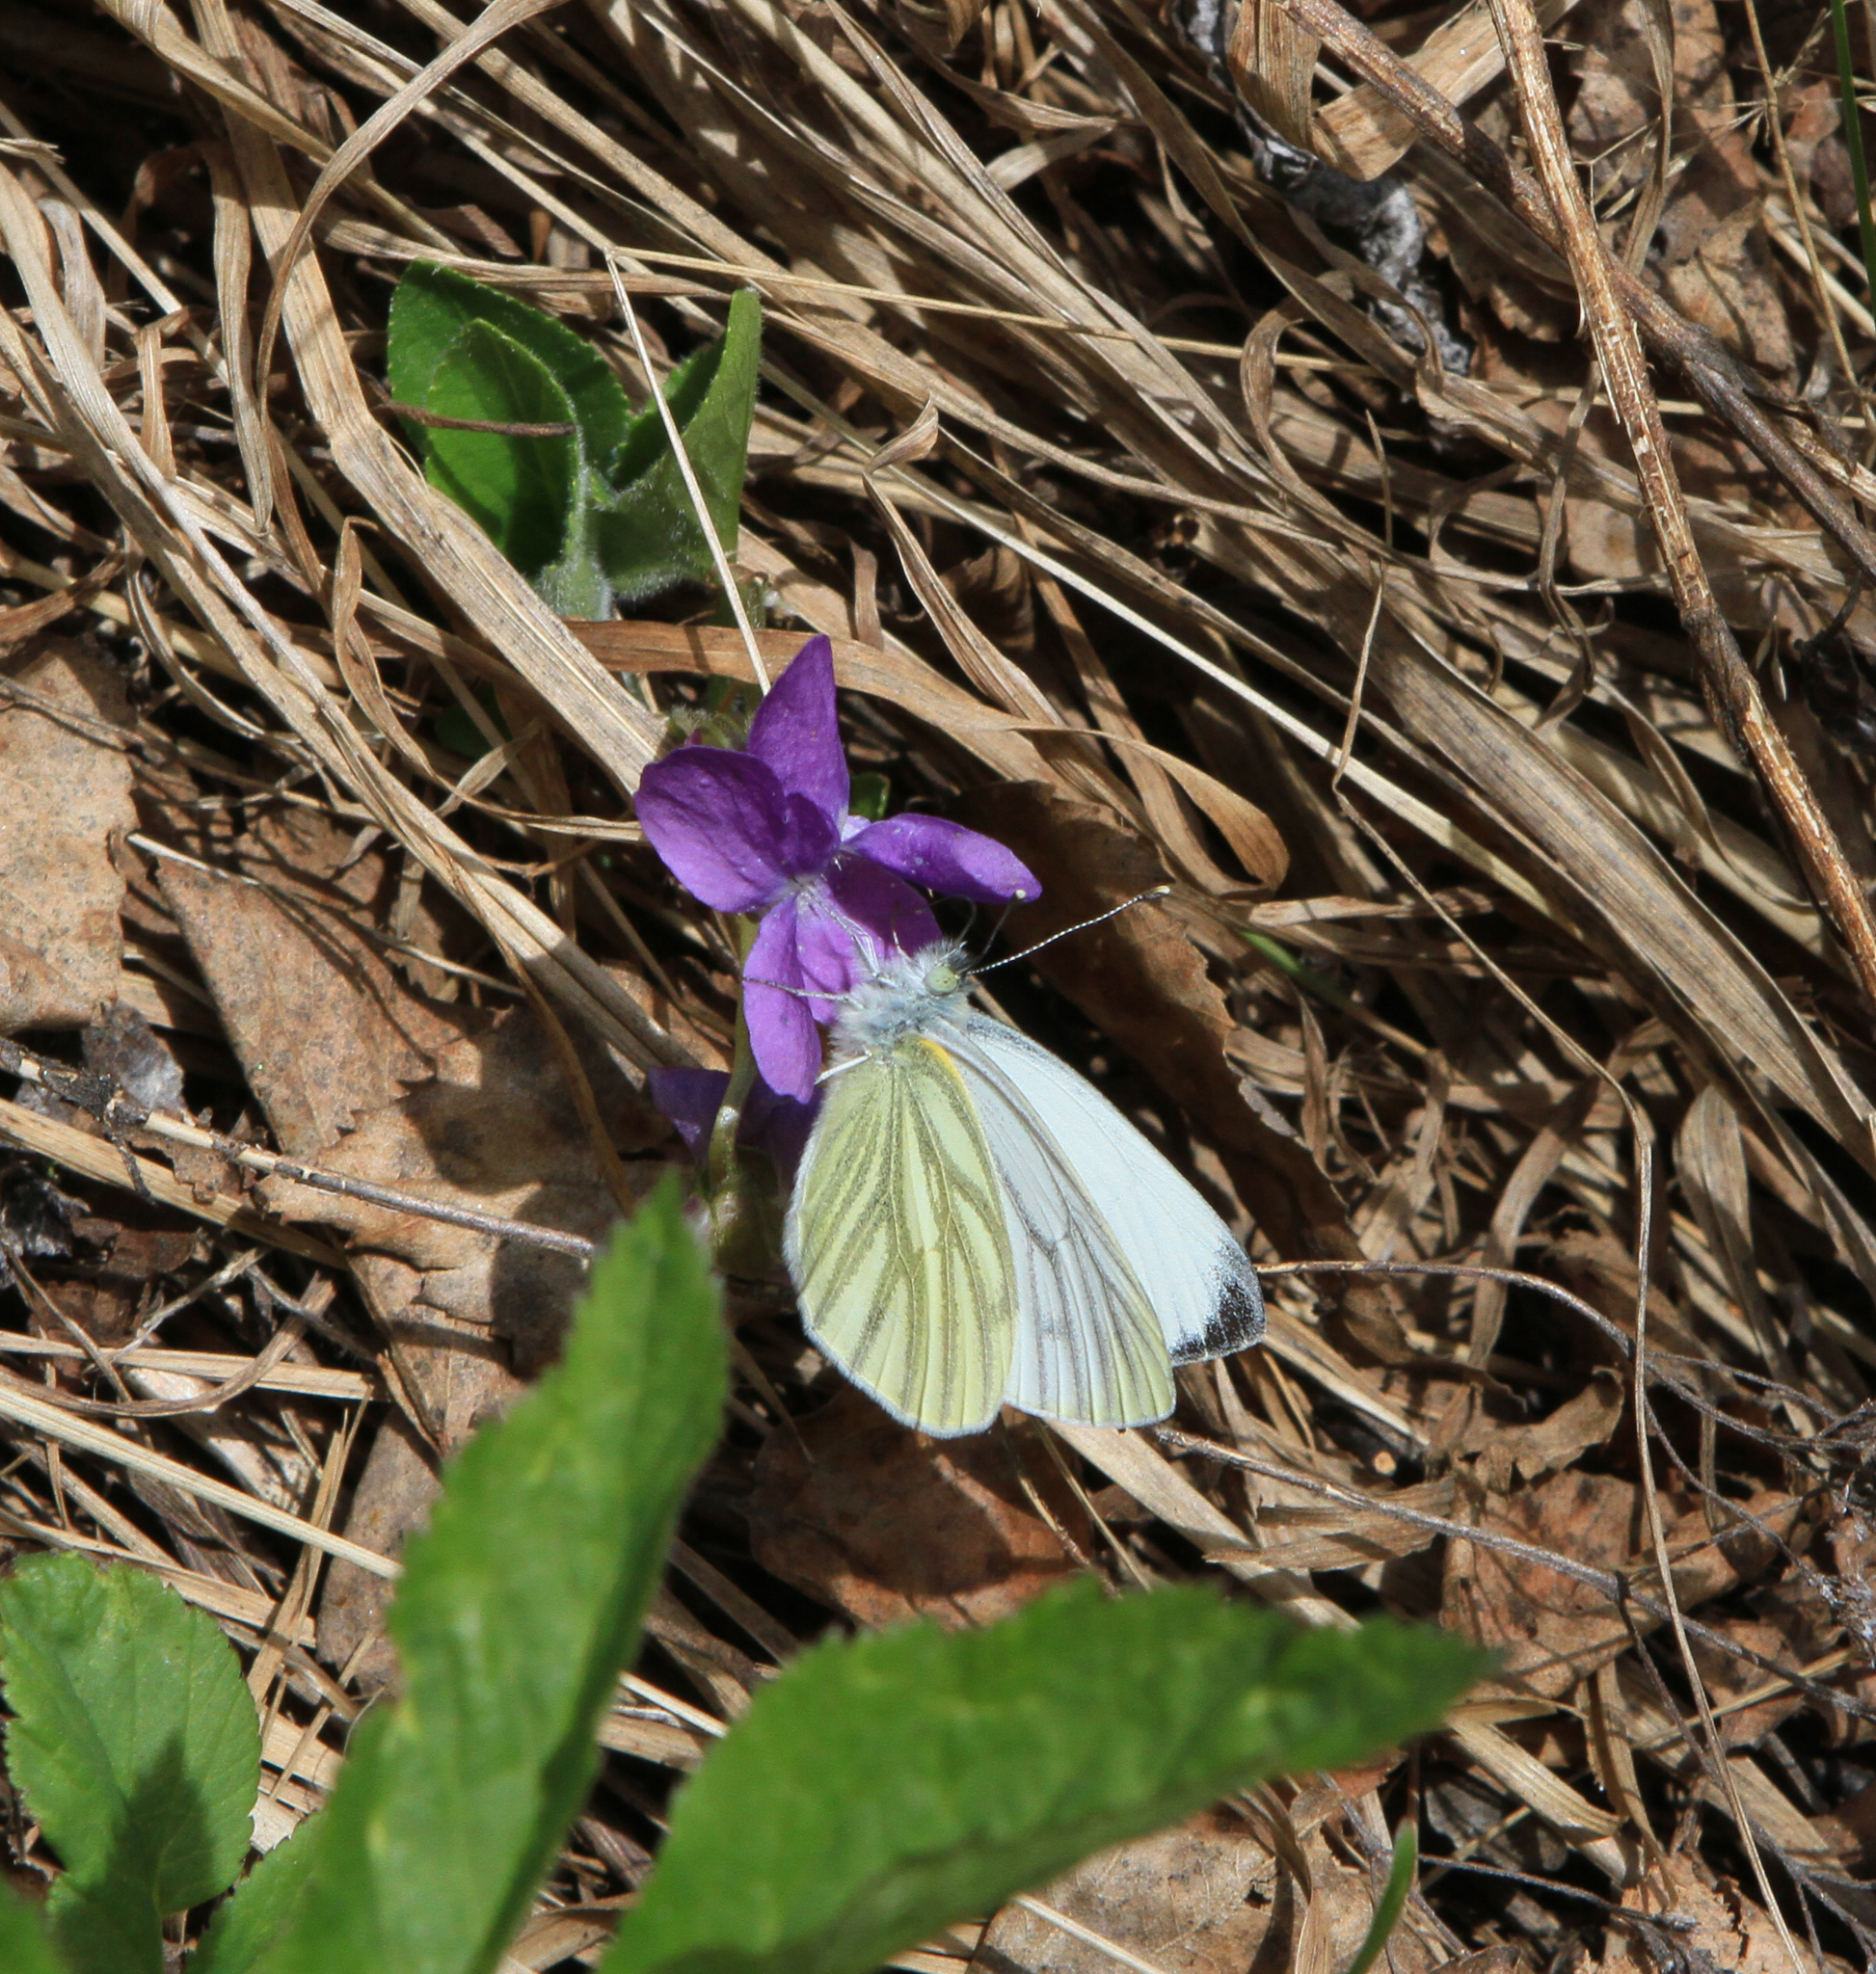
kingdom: Plantae
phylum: Tracheophyta
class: Magnoliopsida
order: Malpighiales
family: Violaceae
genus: Viola
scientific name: Viola hirta
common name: Hairy violet
